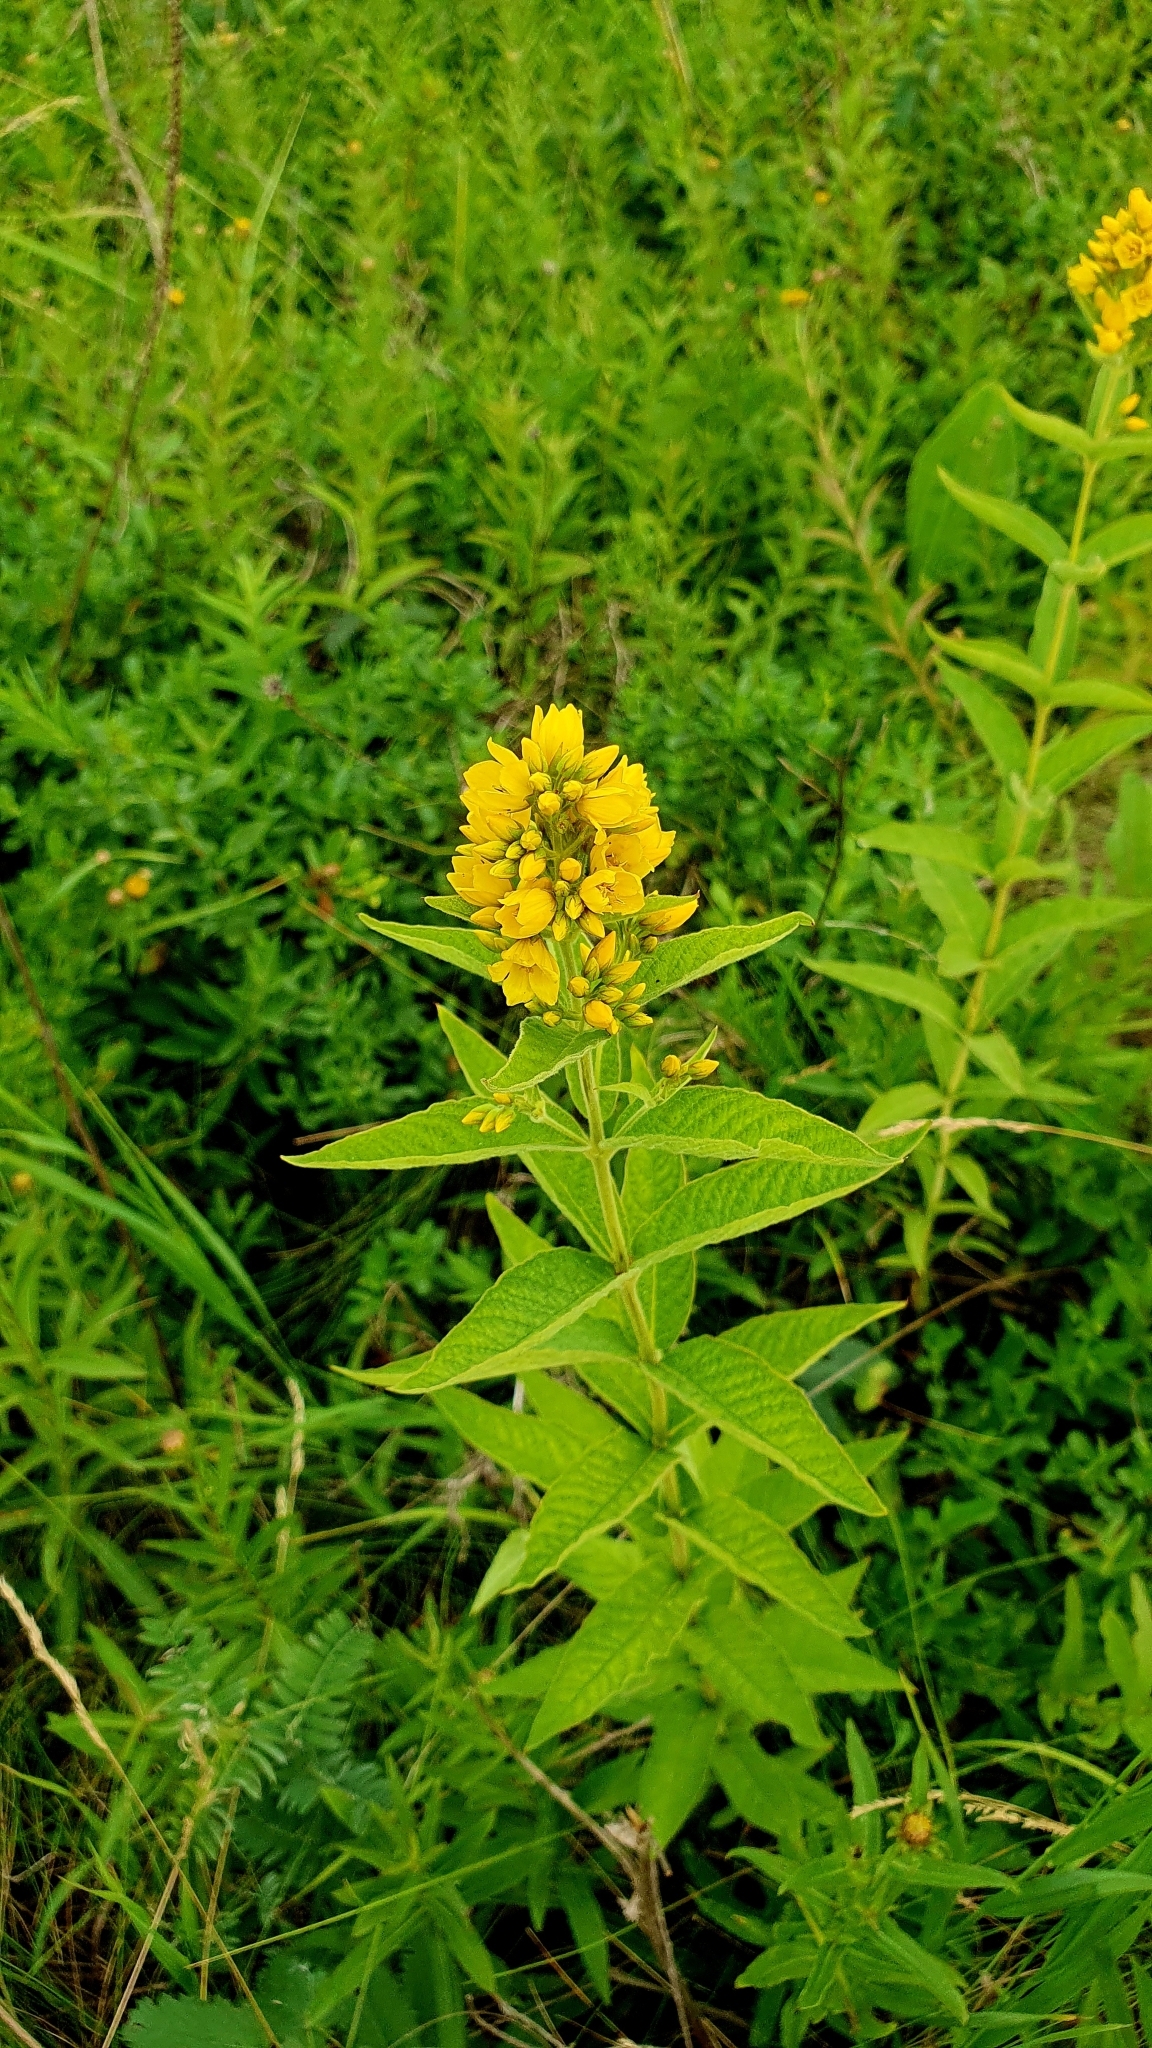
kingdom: Plantae
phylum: Tracheophyta
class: Magnoliopsida
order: Ericales
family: Primulaceae
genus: Lysimachia
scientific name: Lysimachia vulgaris
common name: Yellow loosestrife
